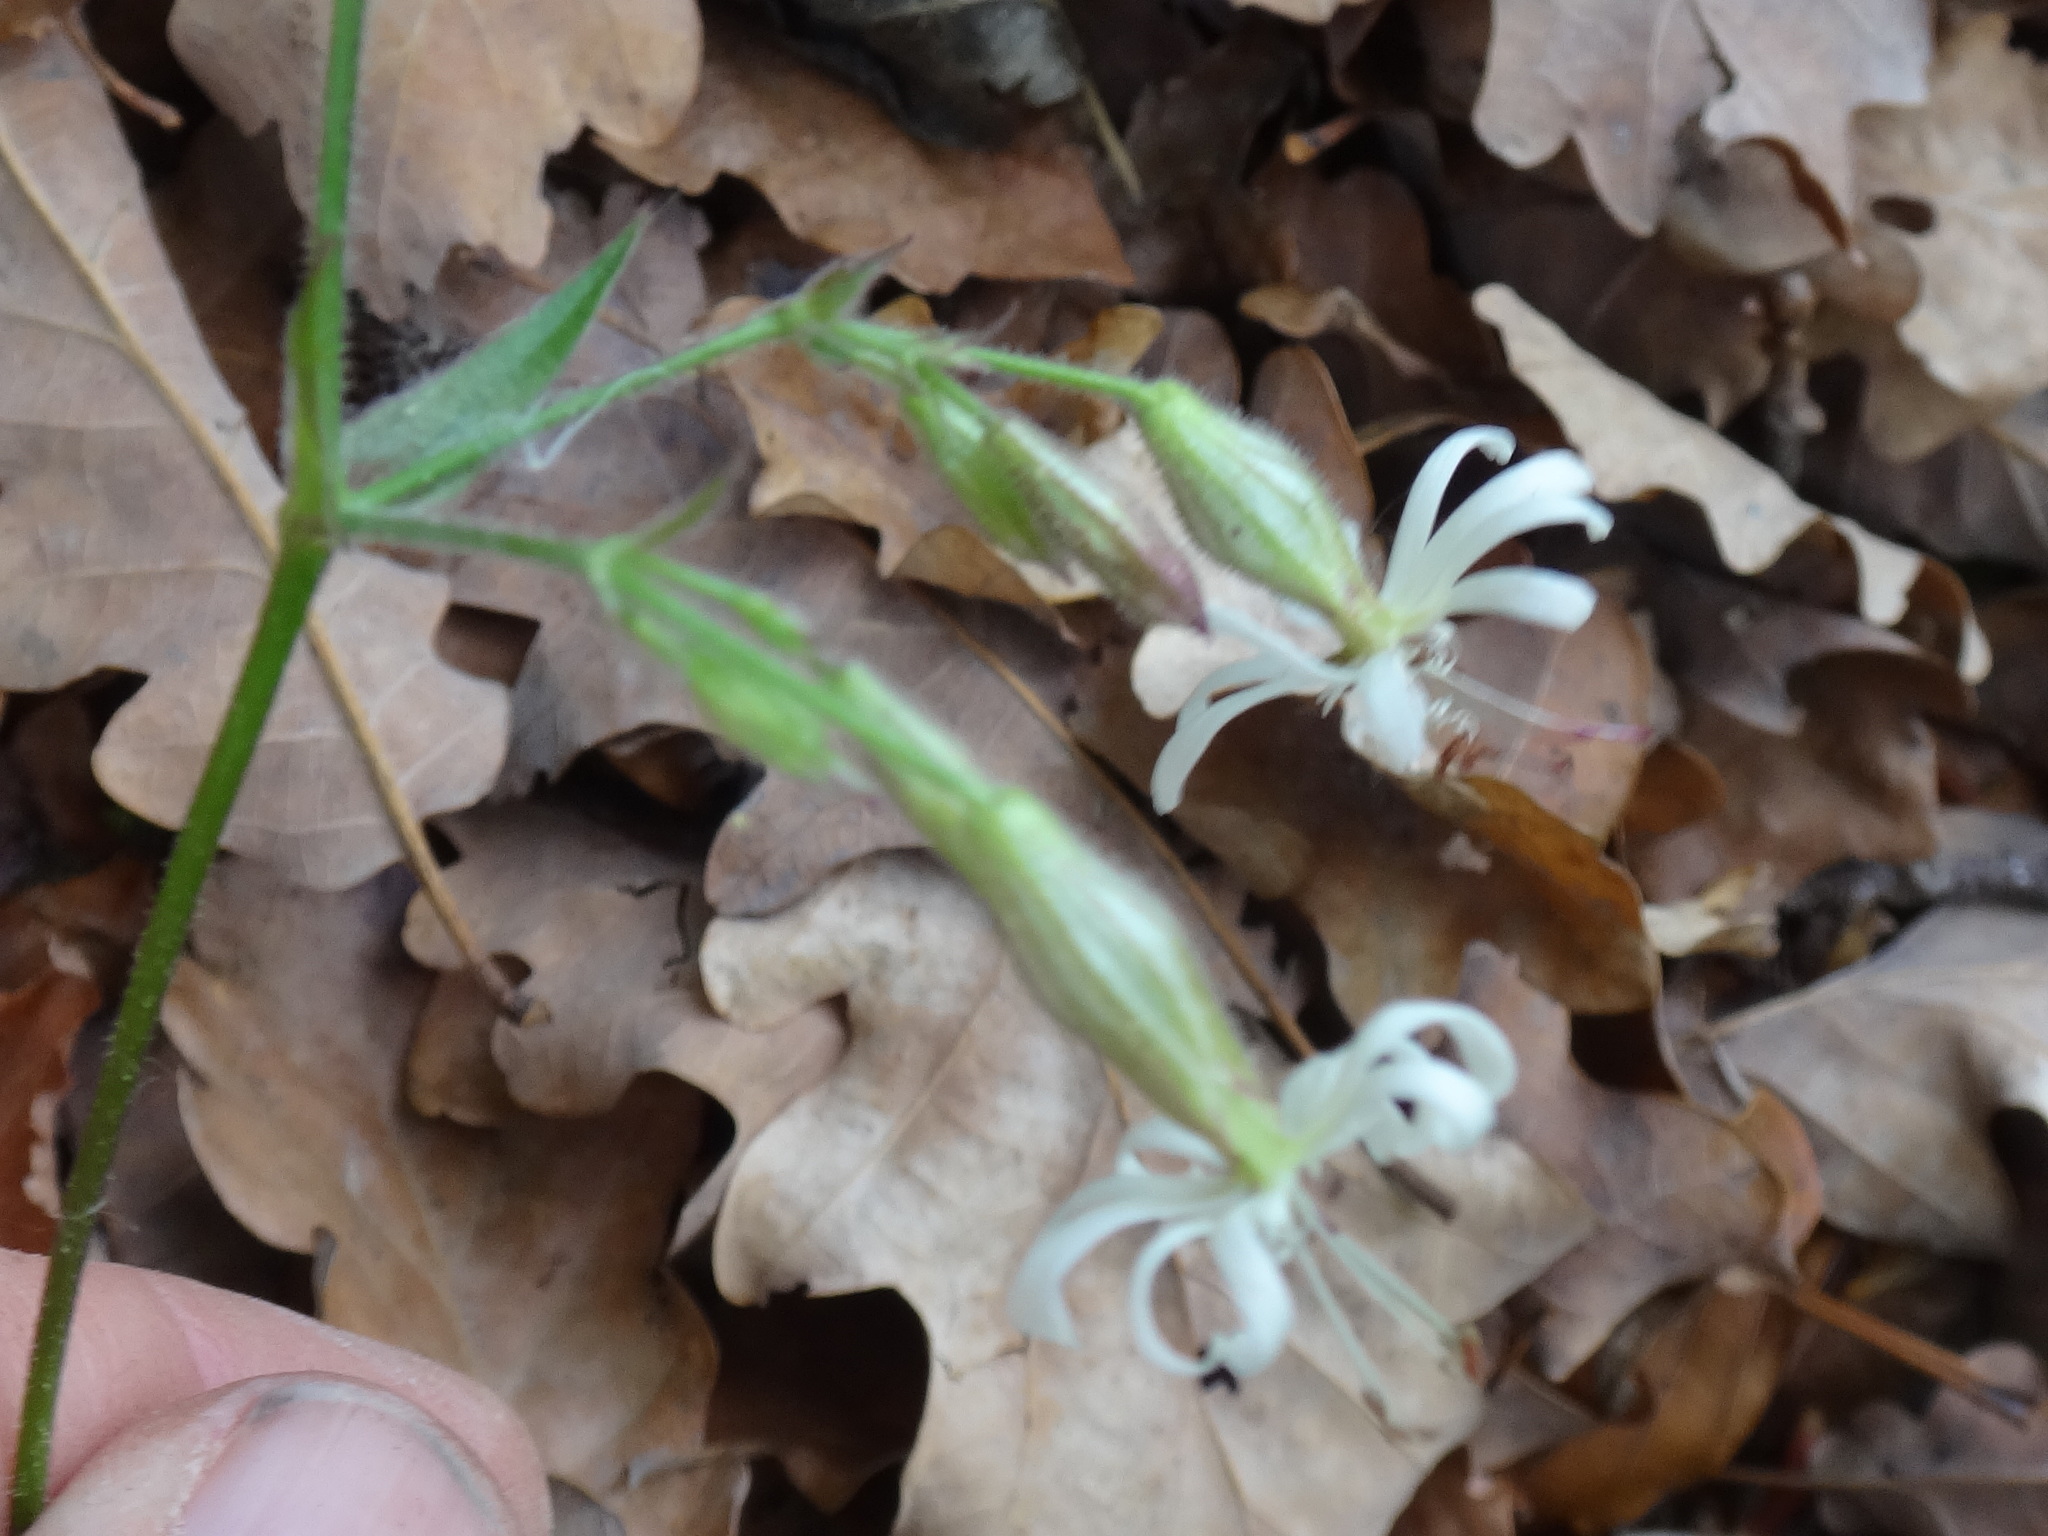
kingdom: Plantae
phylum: Tracheophyta
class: Magnoliopsida
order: Caryophyllales
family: Caryophyllaceae
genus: Silene
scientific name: Silene nutans
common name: Nottingham catchfly
